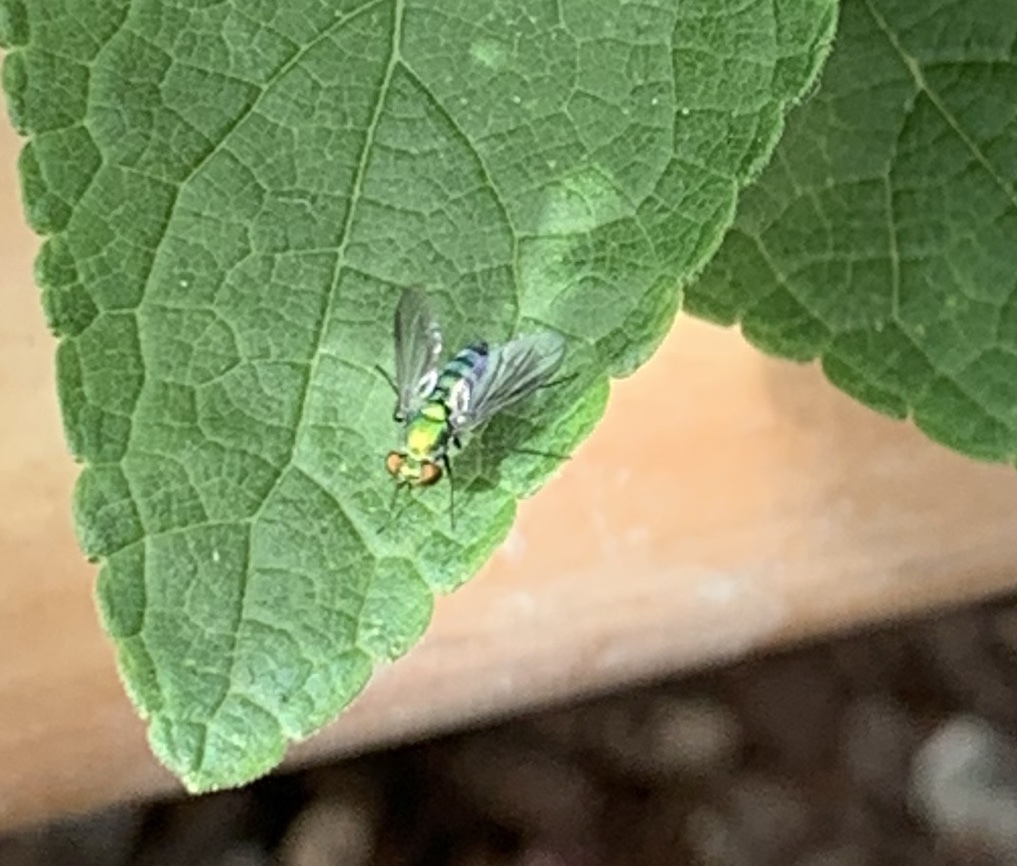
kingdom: Animalia
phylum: Arthropoda
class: Insecta
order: Diptera
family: Dolichopodidae
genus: Condylostylus
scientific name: Condylostylus longicornis
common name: Long-legged fly
